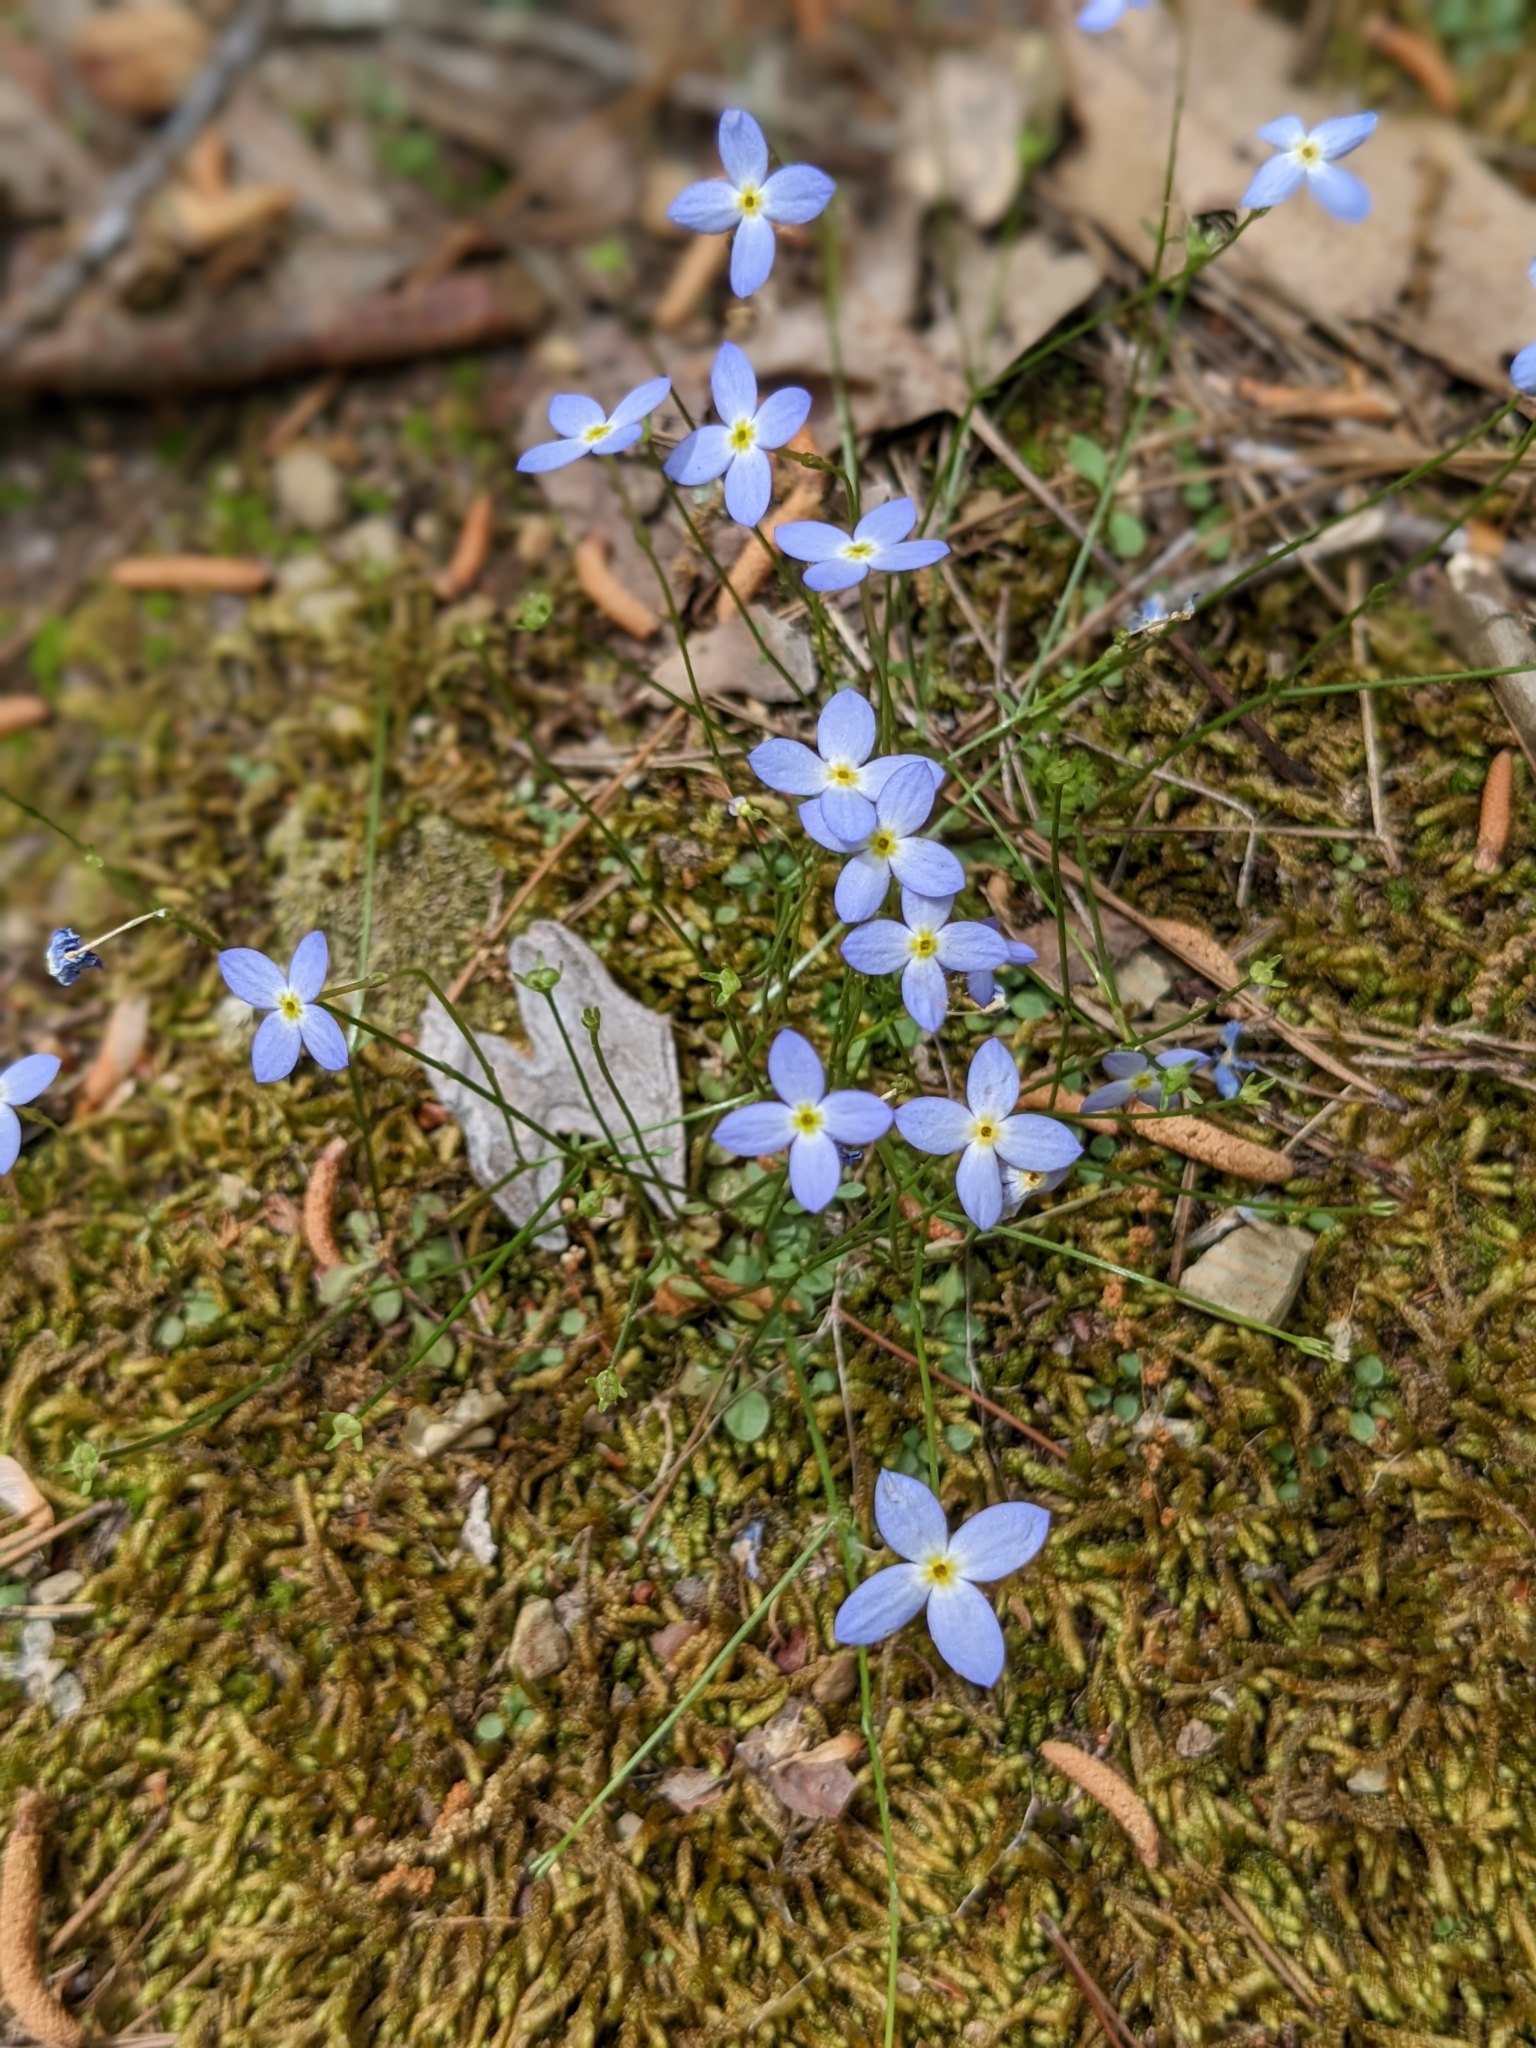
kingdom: Plantae
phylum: Tracheophyta
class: Magnoliopsida
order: Gentianales
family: Rubiaceae
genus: Houstonia
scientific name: Houstonia caerulea
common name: Bluets
